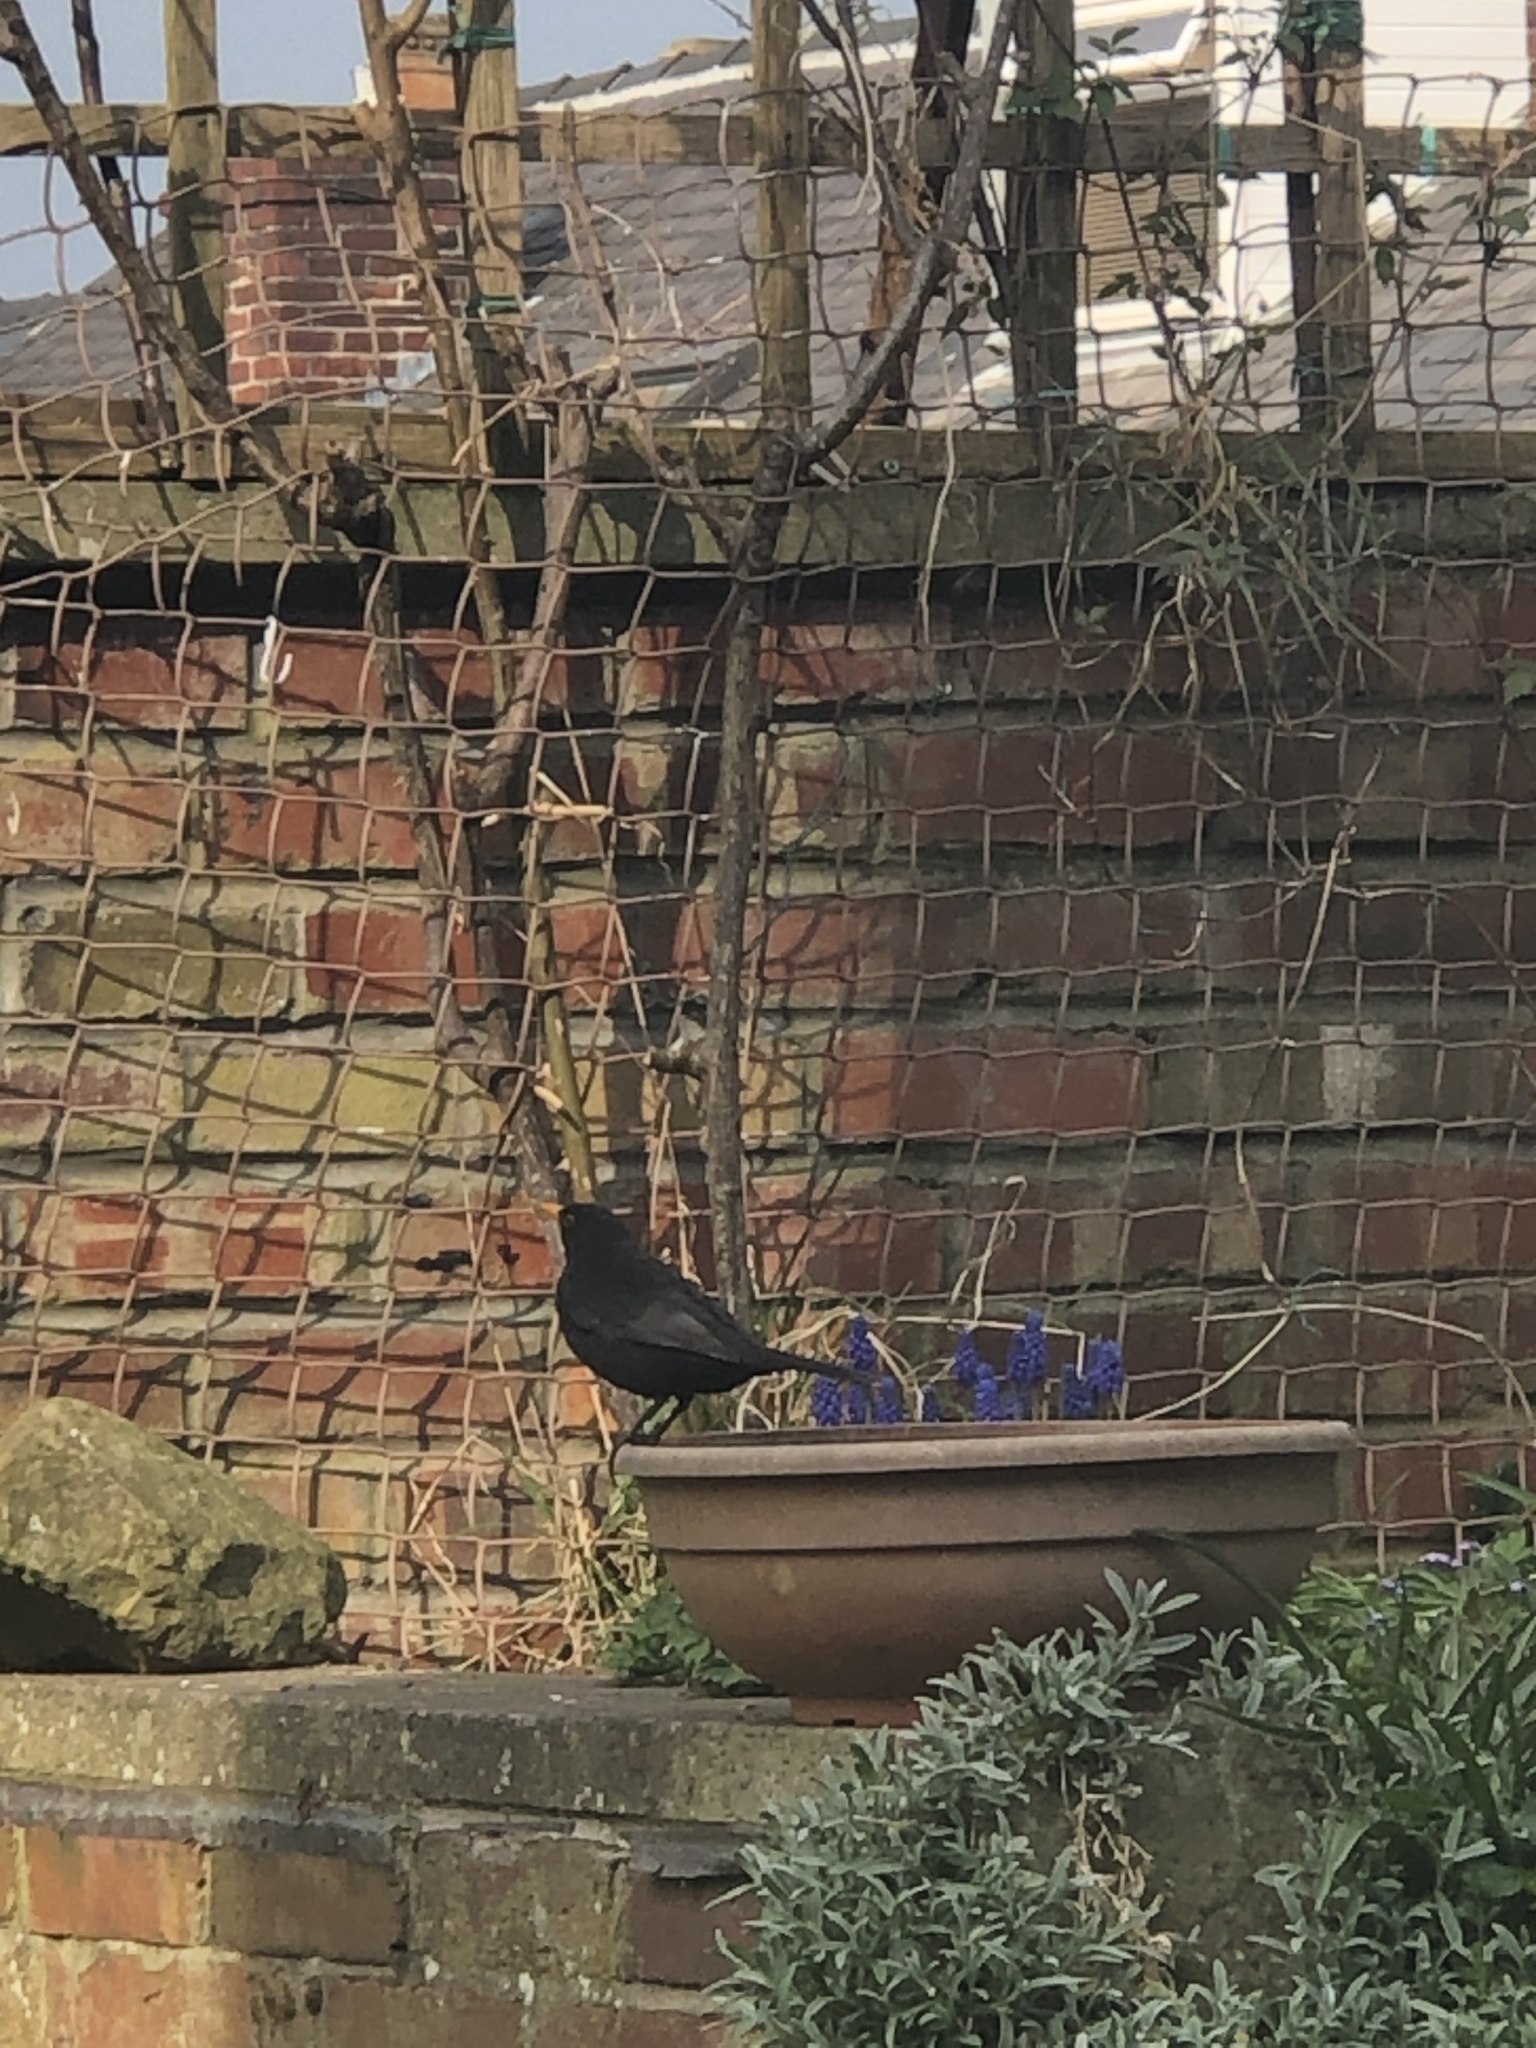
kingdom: Animalia
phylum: Chordata
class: Aves
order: Passeriformes
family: Turdidae
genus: Turdus
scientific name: Turdus merula
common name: Common blackbird
